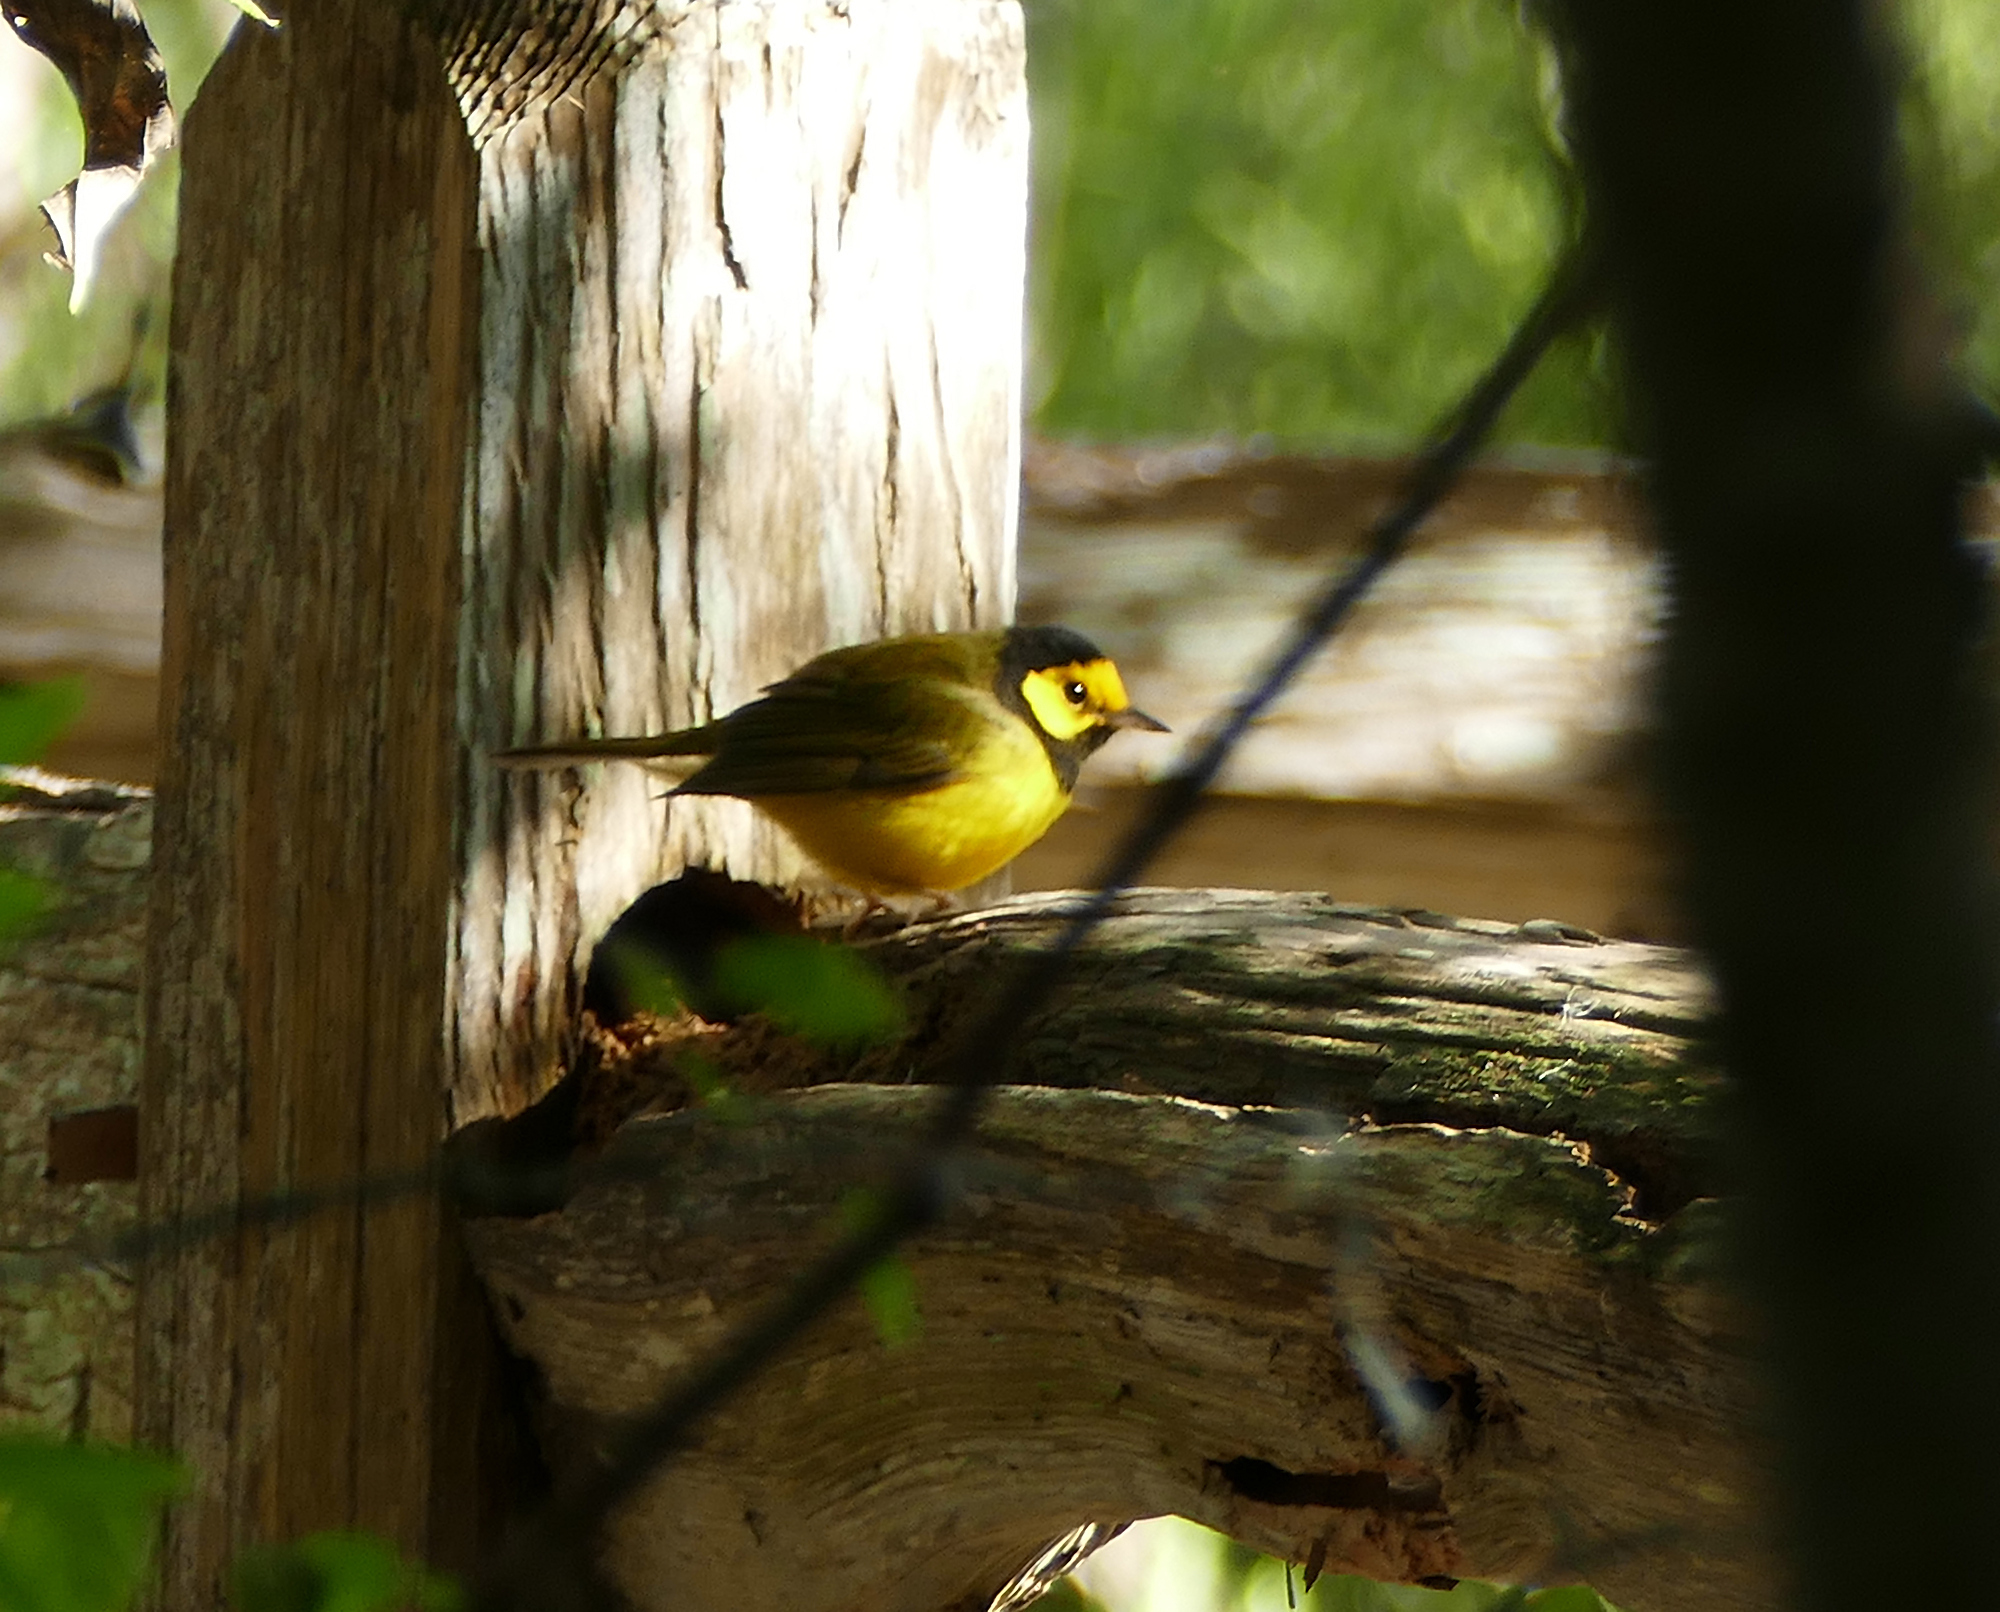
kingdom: Animalia
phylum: Chordata
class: Aves
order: Passeriformes
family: Parulidae
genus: Setophaga
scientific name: Setophaga citrina
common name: Hooded warbler
